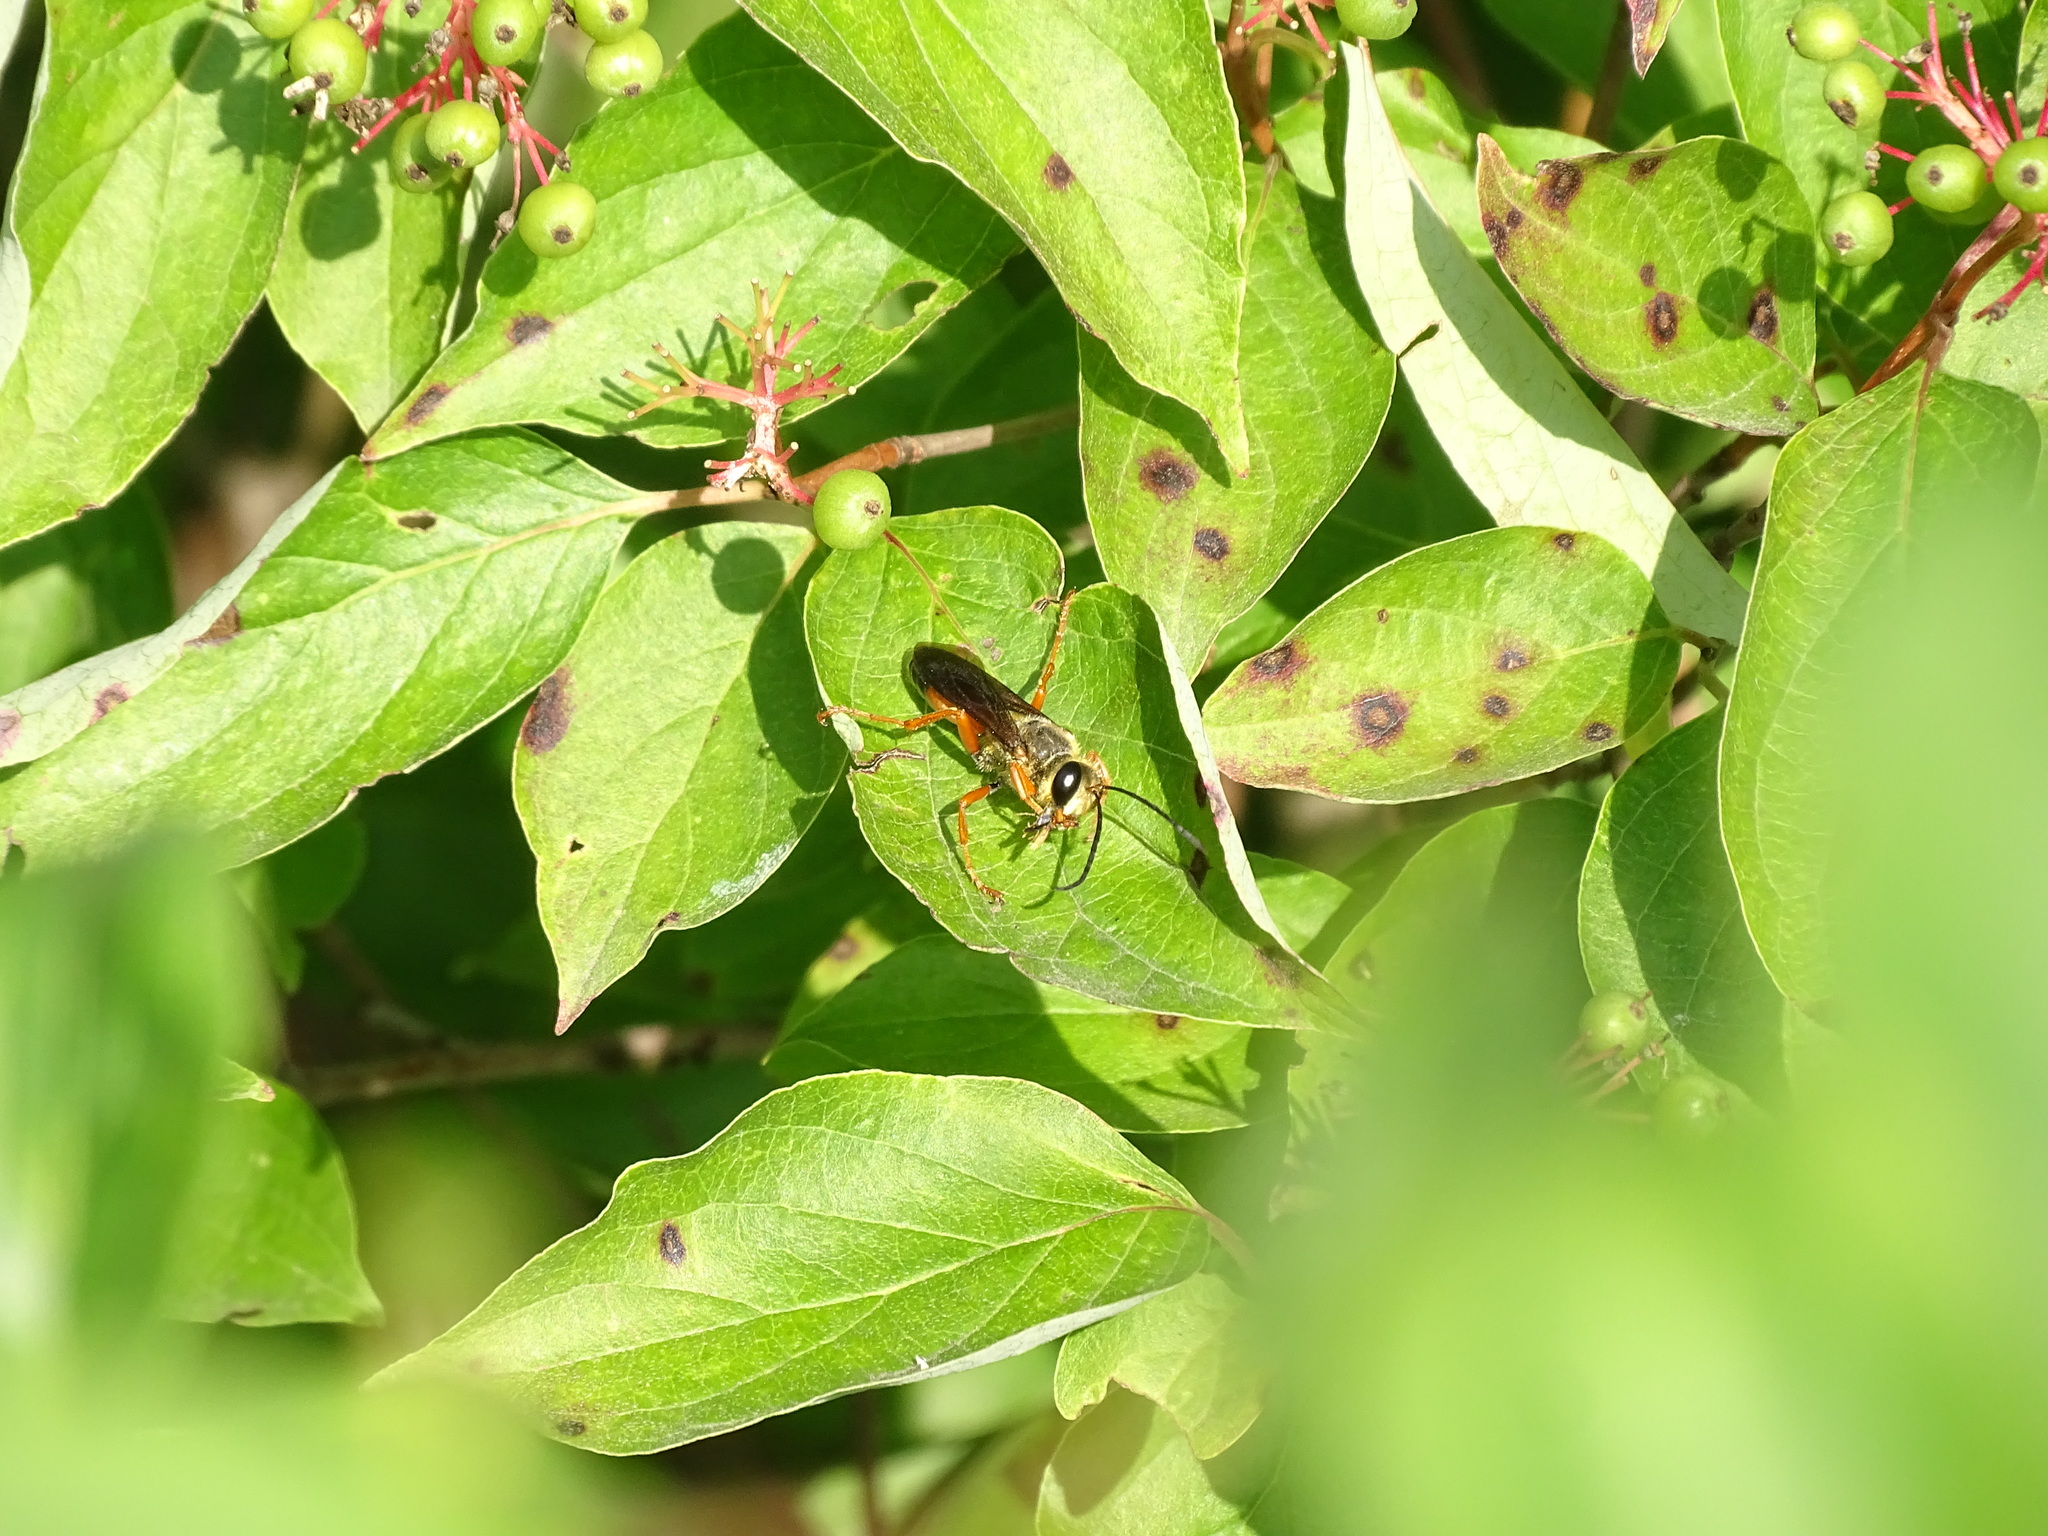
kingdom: Animalia
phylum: Arthropoda
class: Insecta
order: Hymenoptera
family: Sphecidae
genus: Sphex
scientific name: Sphex ichneumoneus
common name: Great golden digger wasp
